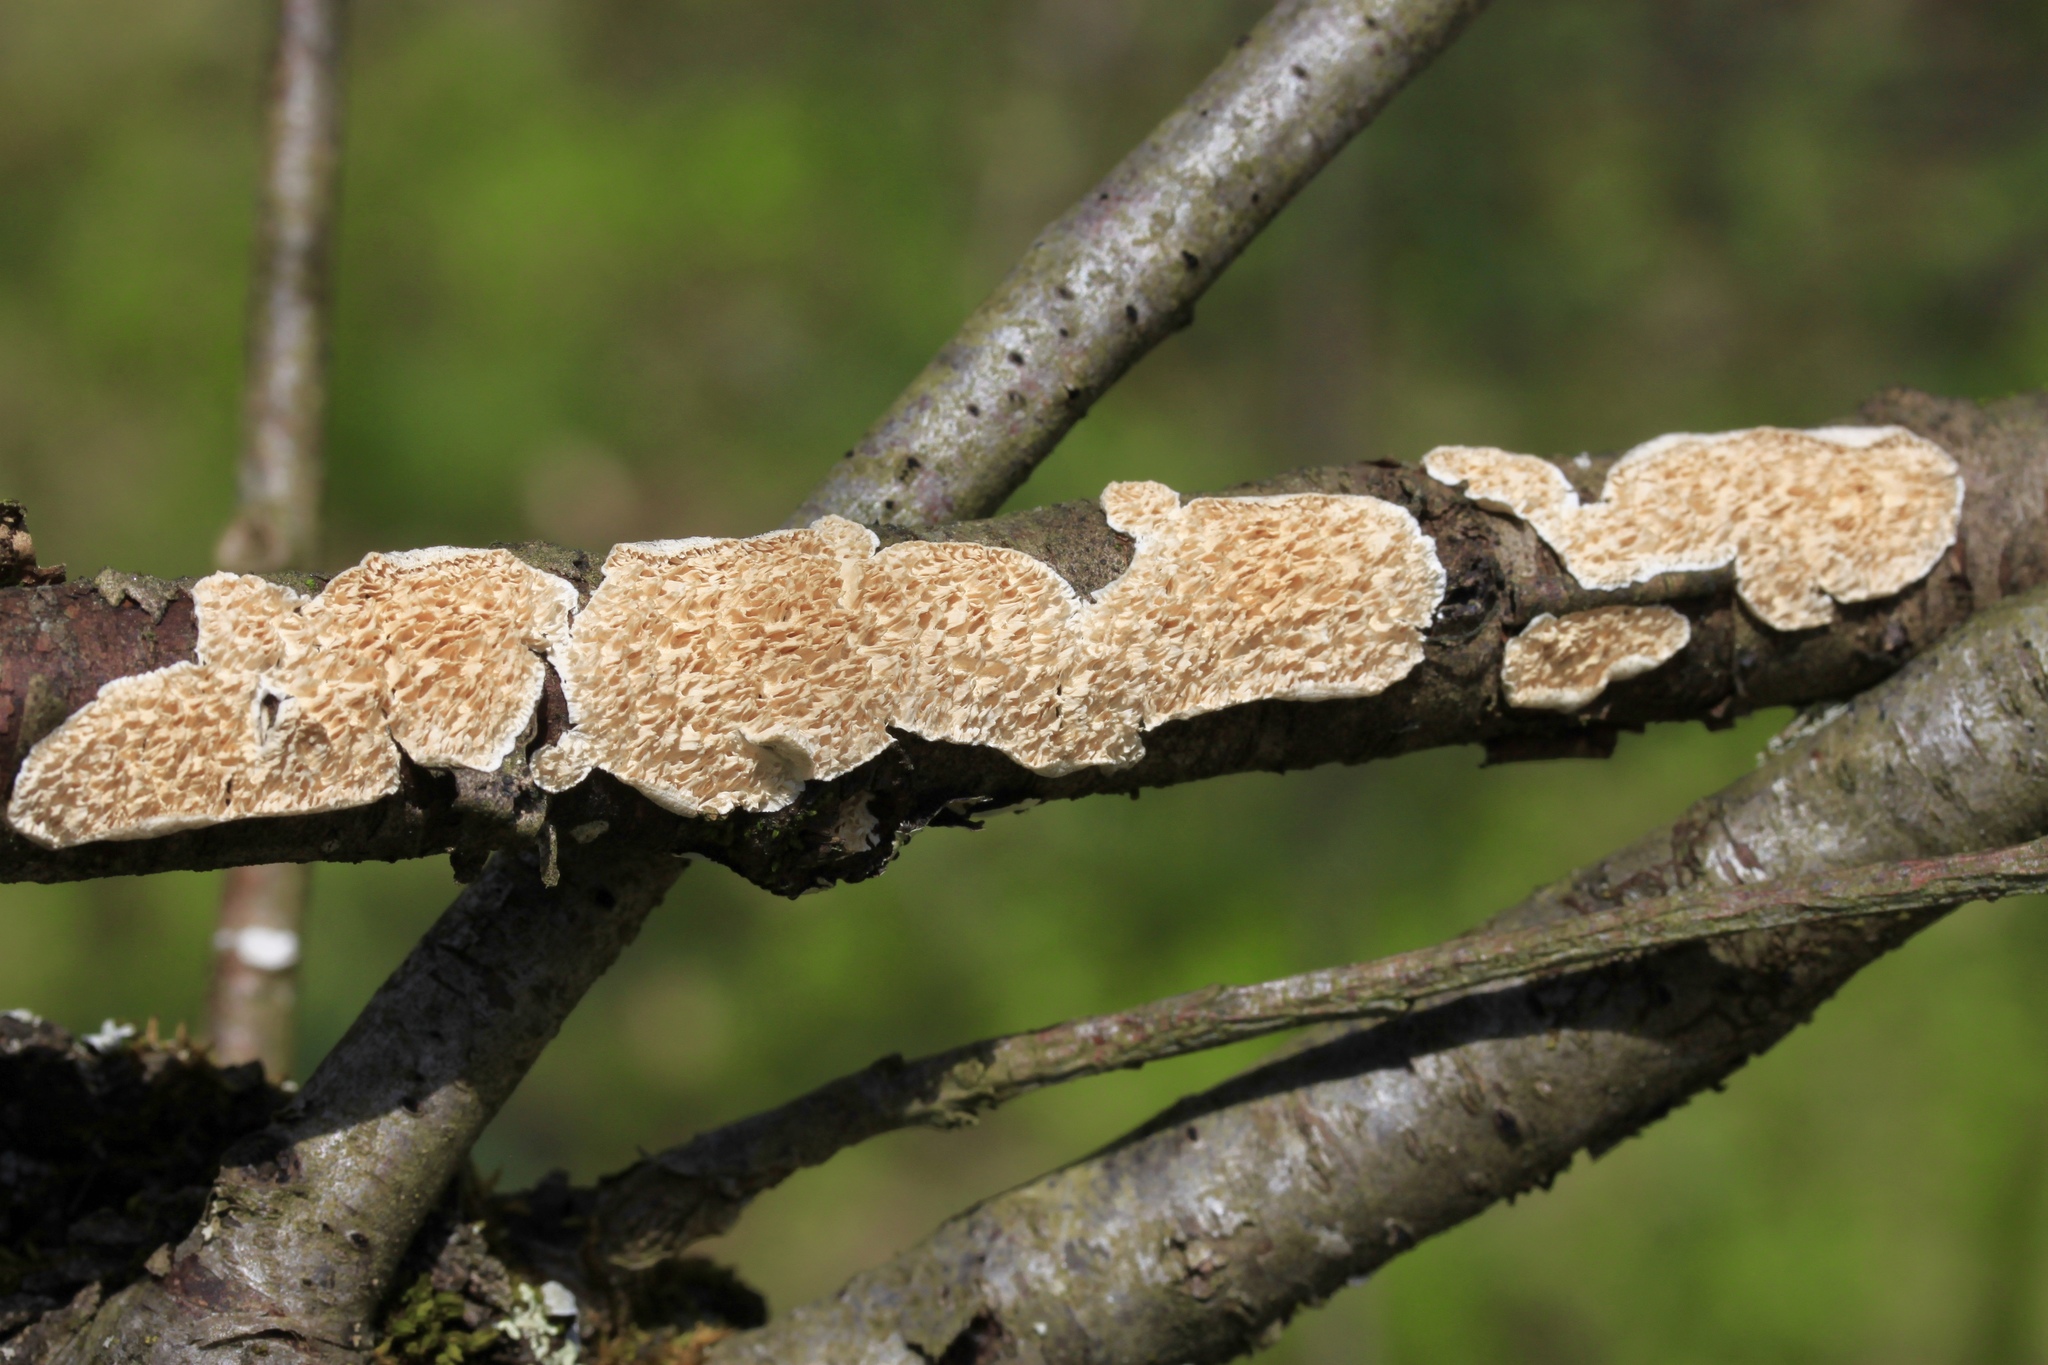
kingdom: Fungi
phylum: Basidiomycota
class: Agaricomycetes
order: Polyporales
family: Irpicaceae
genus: Irpex
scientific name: Irpex lacteus
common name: Milk-white toothed polypore
